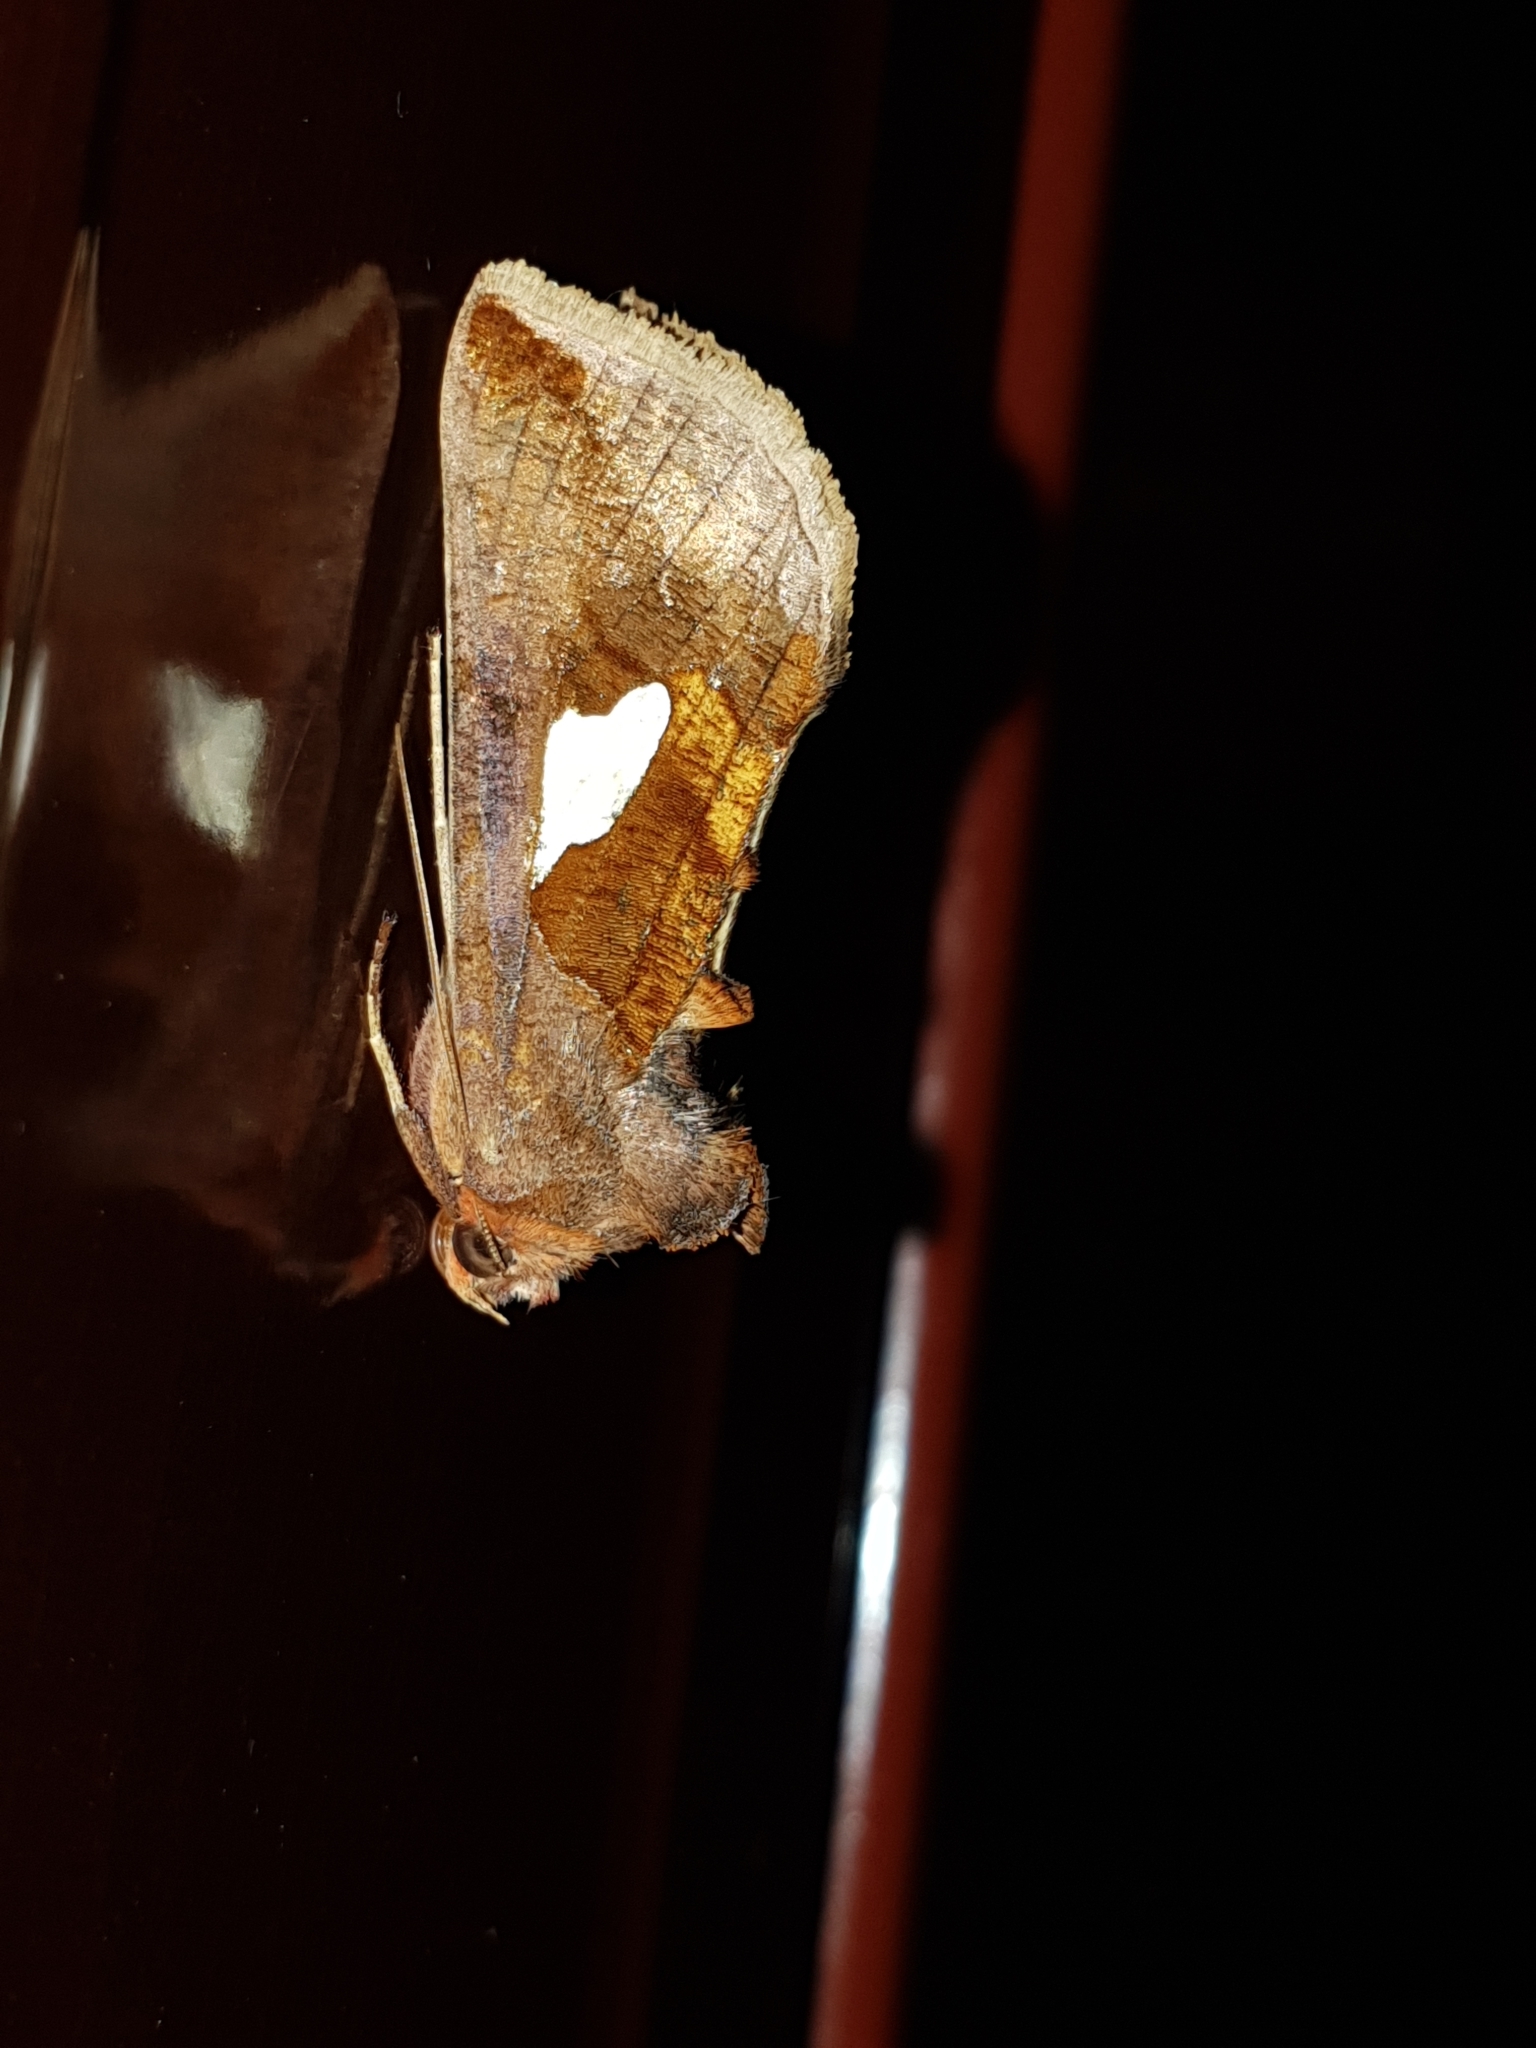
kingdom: Animalia
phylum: Arthropoda
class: Insecta
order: Lepidoptera
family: Noctuidae
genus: Autographa
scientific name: Autographa bractea
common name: Gold spangle
